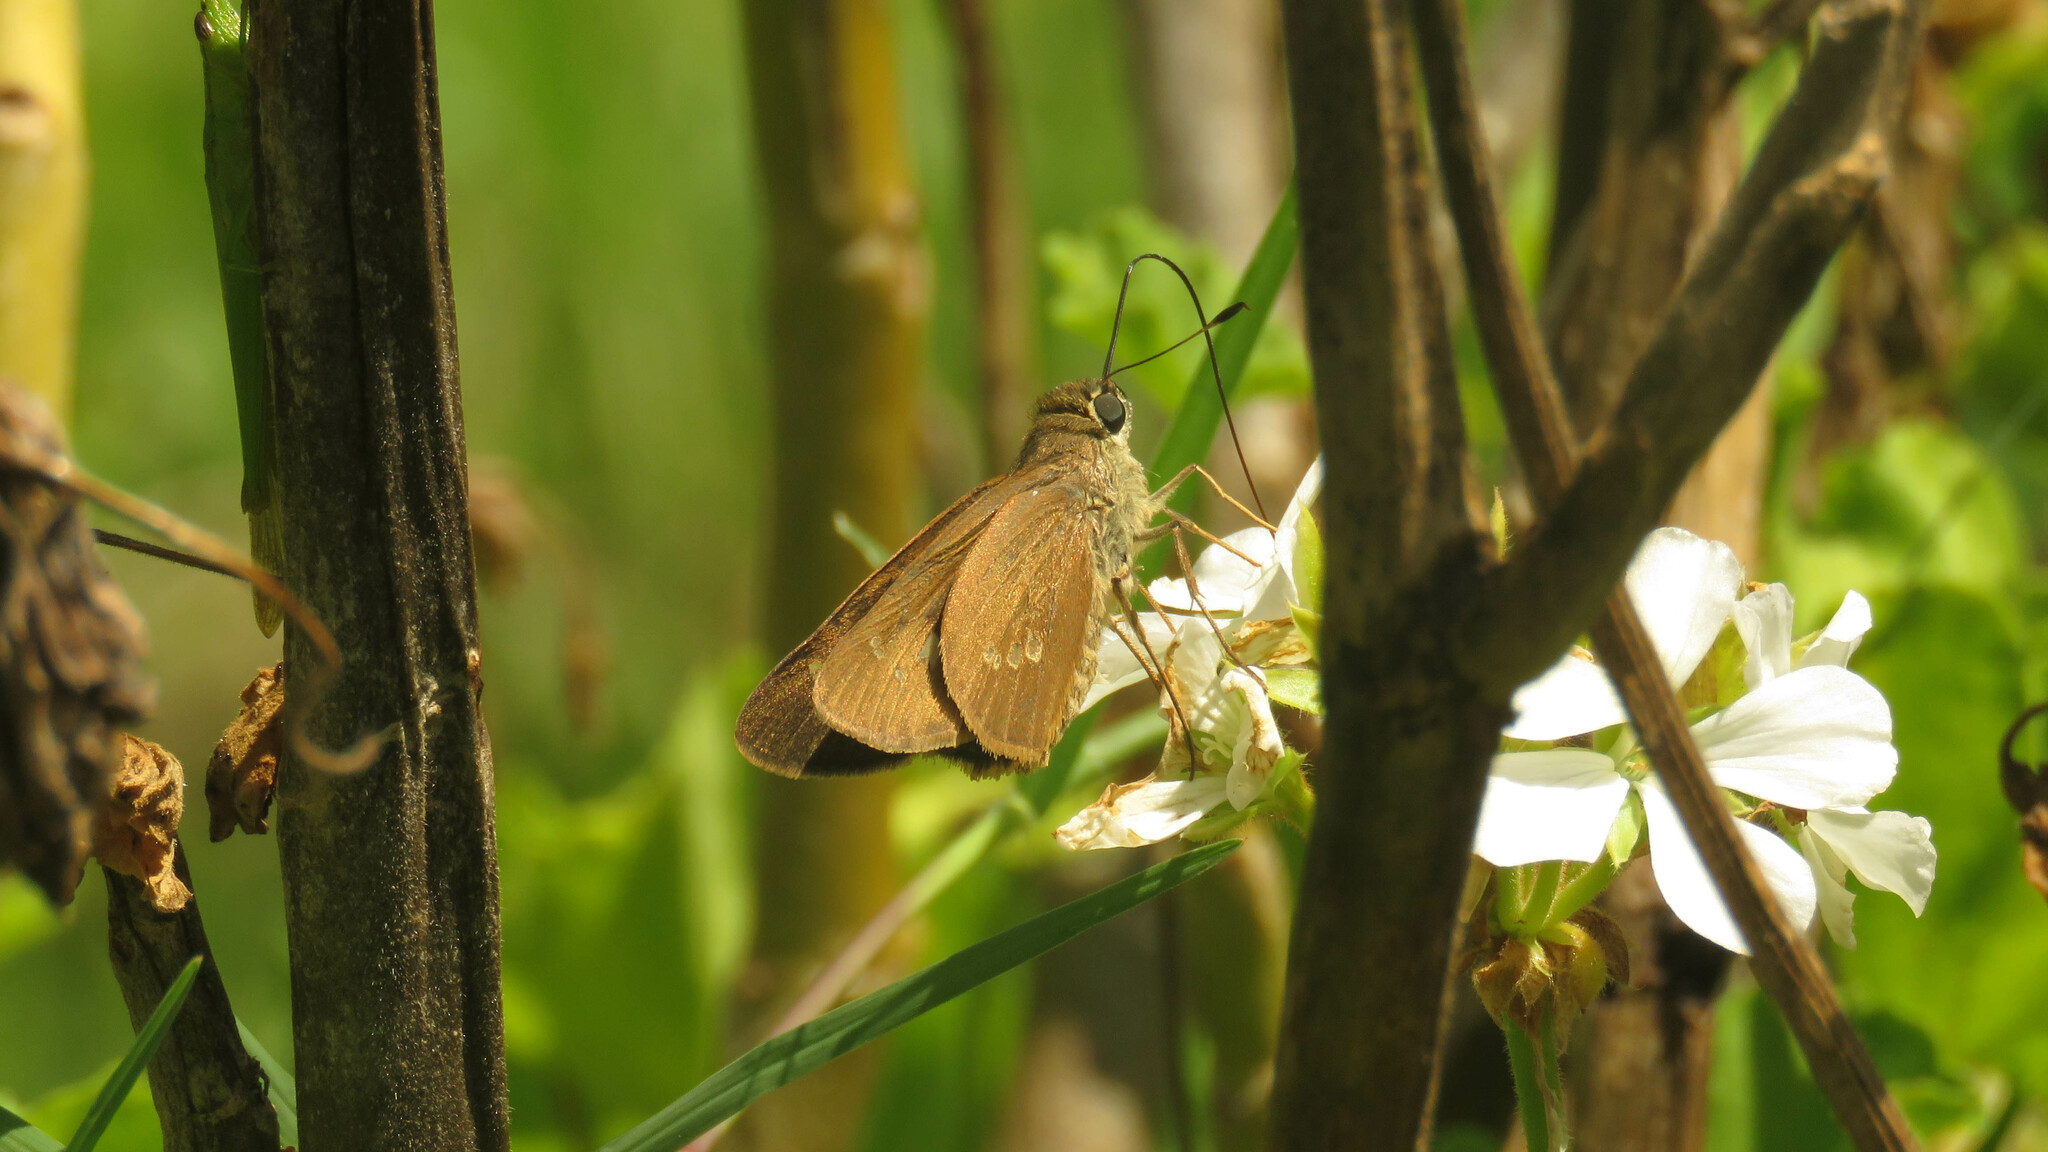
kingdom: Animalia
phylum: Arthropoda
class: Insecta
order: Lepidoptera
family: Hesperiidae
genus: Calpodes
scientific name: Calpodes ethlius
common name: Brazilian skipper
